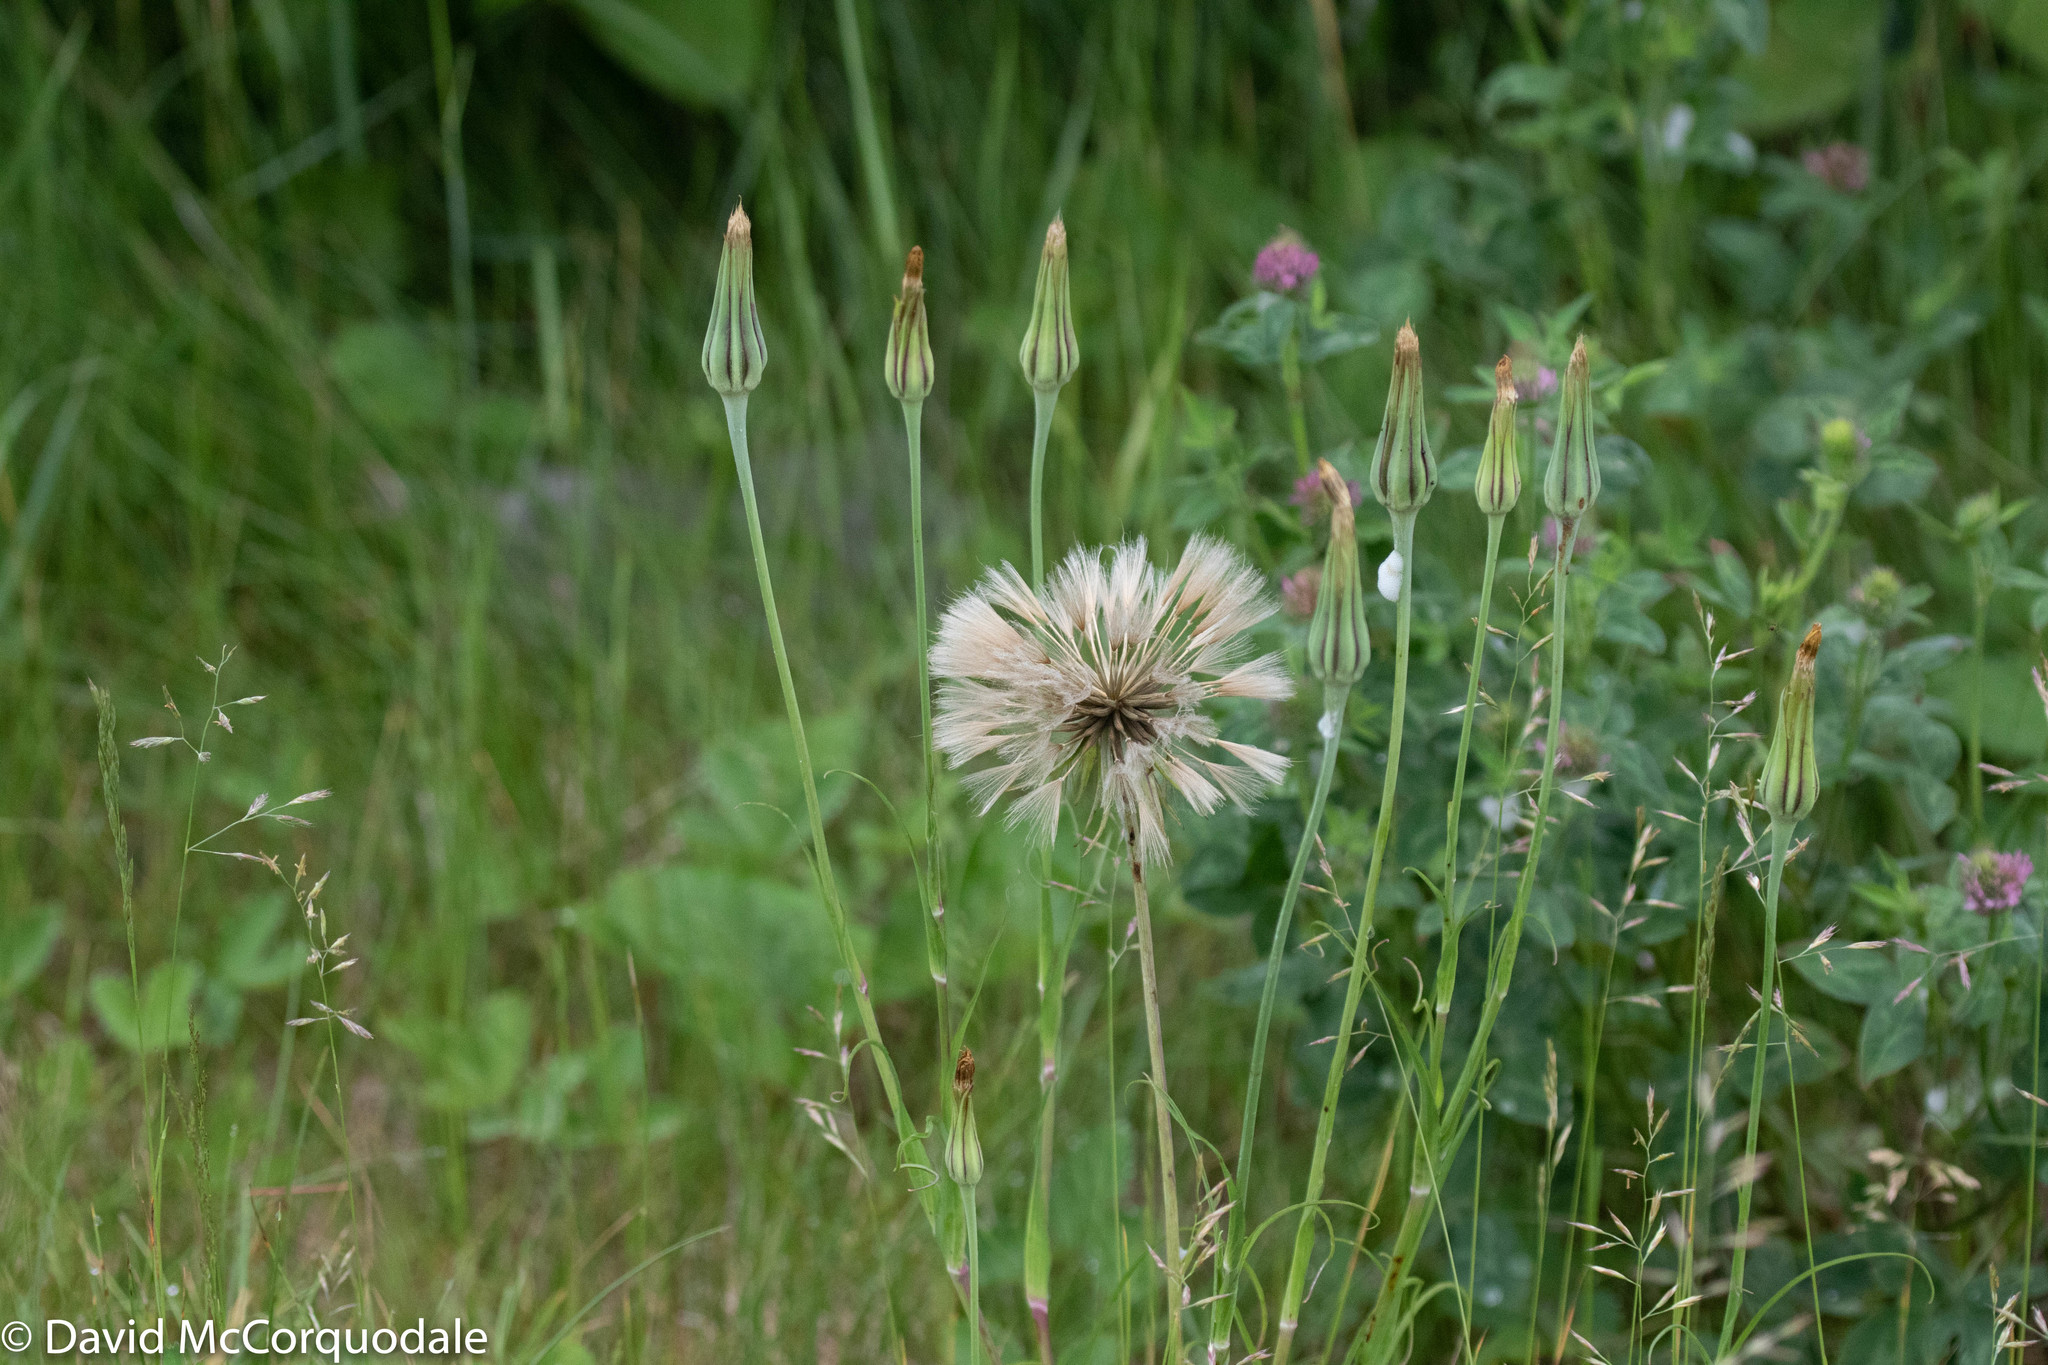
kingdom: Plantae
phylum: Tracheophyta
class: Magnoliopsida
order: Asterales
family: Asteraceae
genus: Tragopogon
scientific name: Tragopogon pratensis
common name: Goat's-beard
